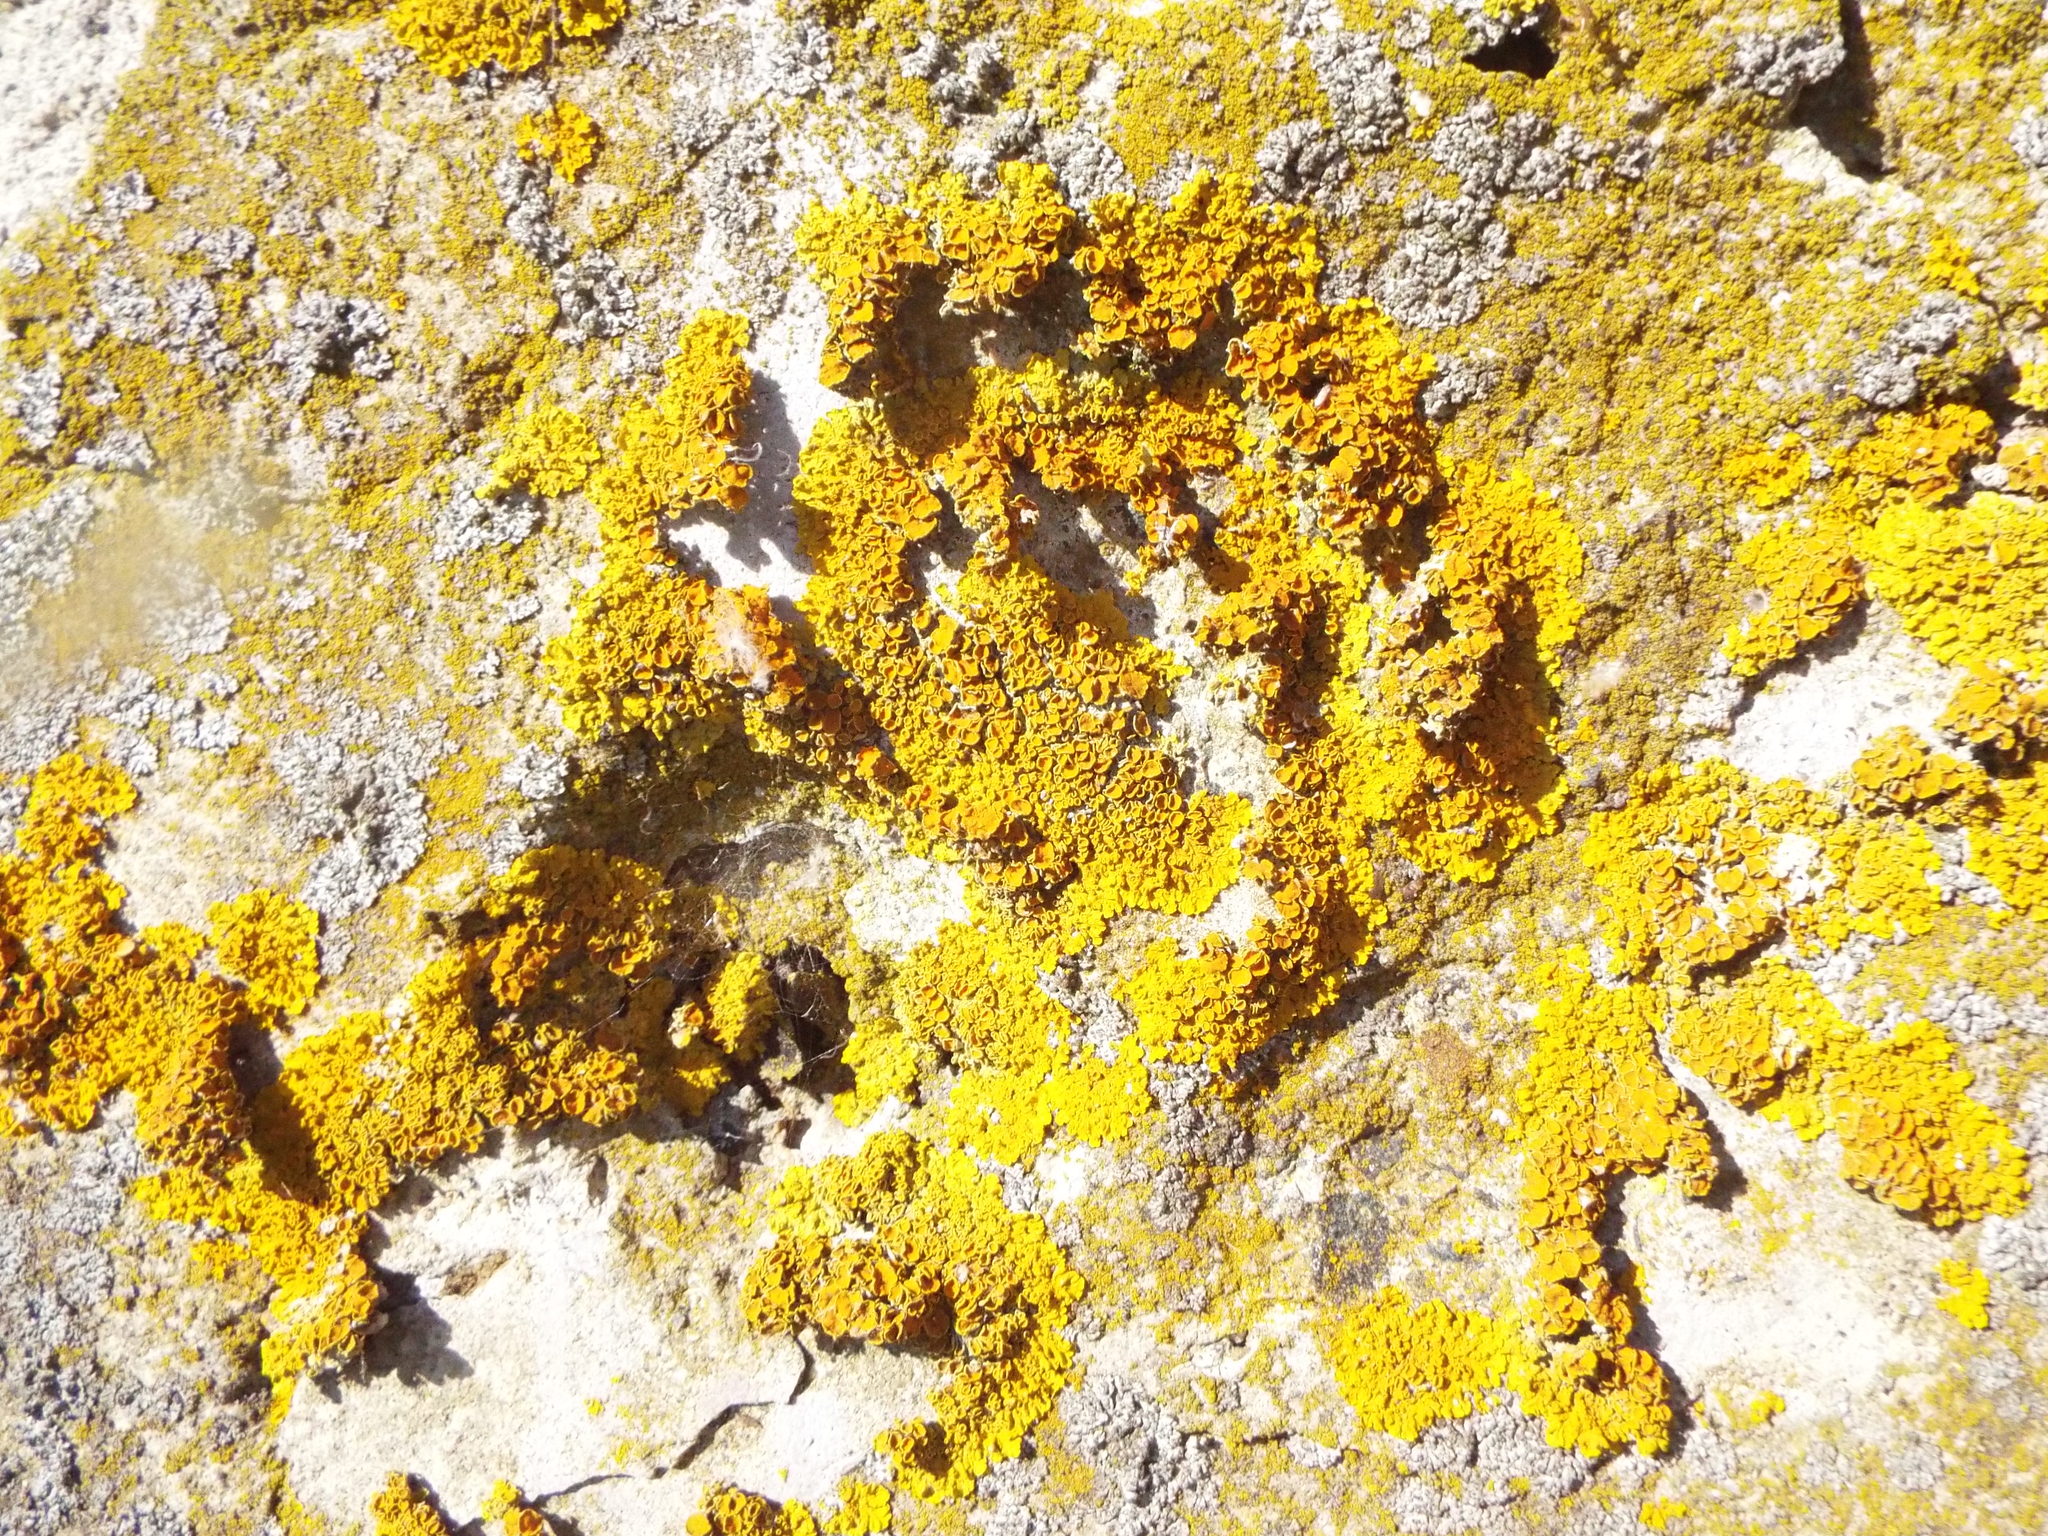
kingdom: Fungi
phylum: Ascomycota
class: Lecanoromycetes
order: Teloschistales
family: Teloschistaceae
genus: Xanthoria
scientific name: Xanthoria parietina
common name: Common orange lichen
